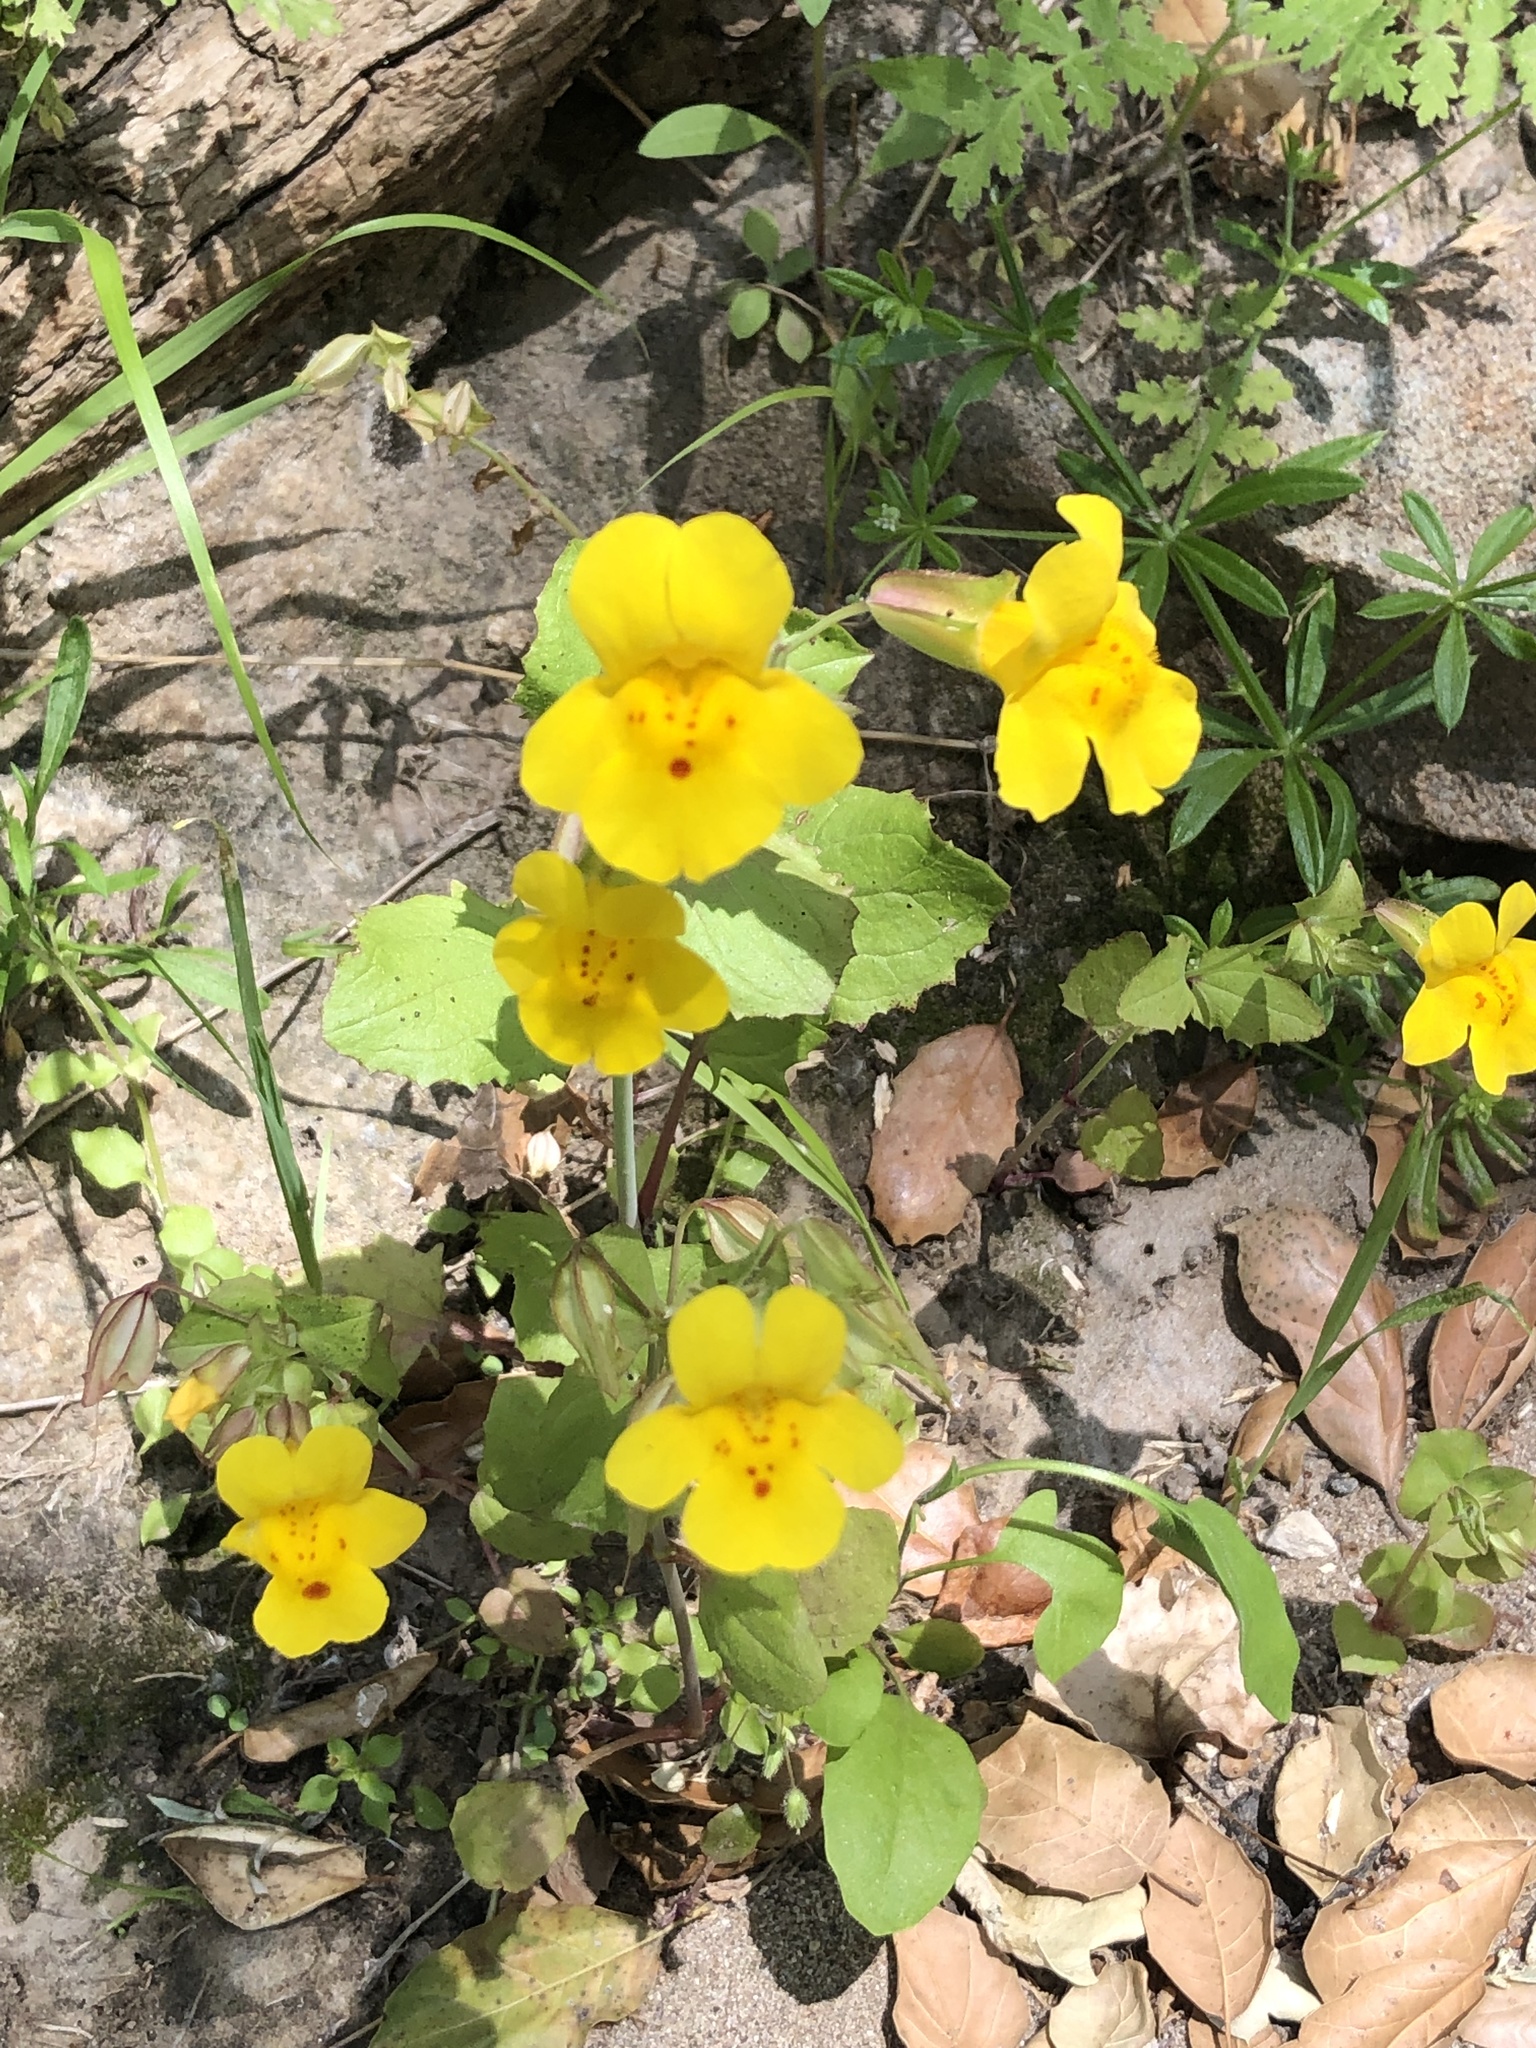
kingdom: Plantae
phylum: Tracheophyta
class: Magnoliopsida
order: Lamiales
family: Phrymaceae
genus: Erythranthe
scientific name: Erythranthe guttata
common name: Monkeyflower
